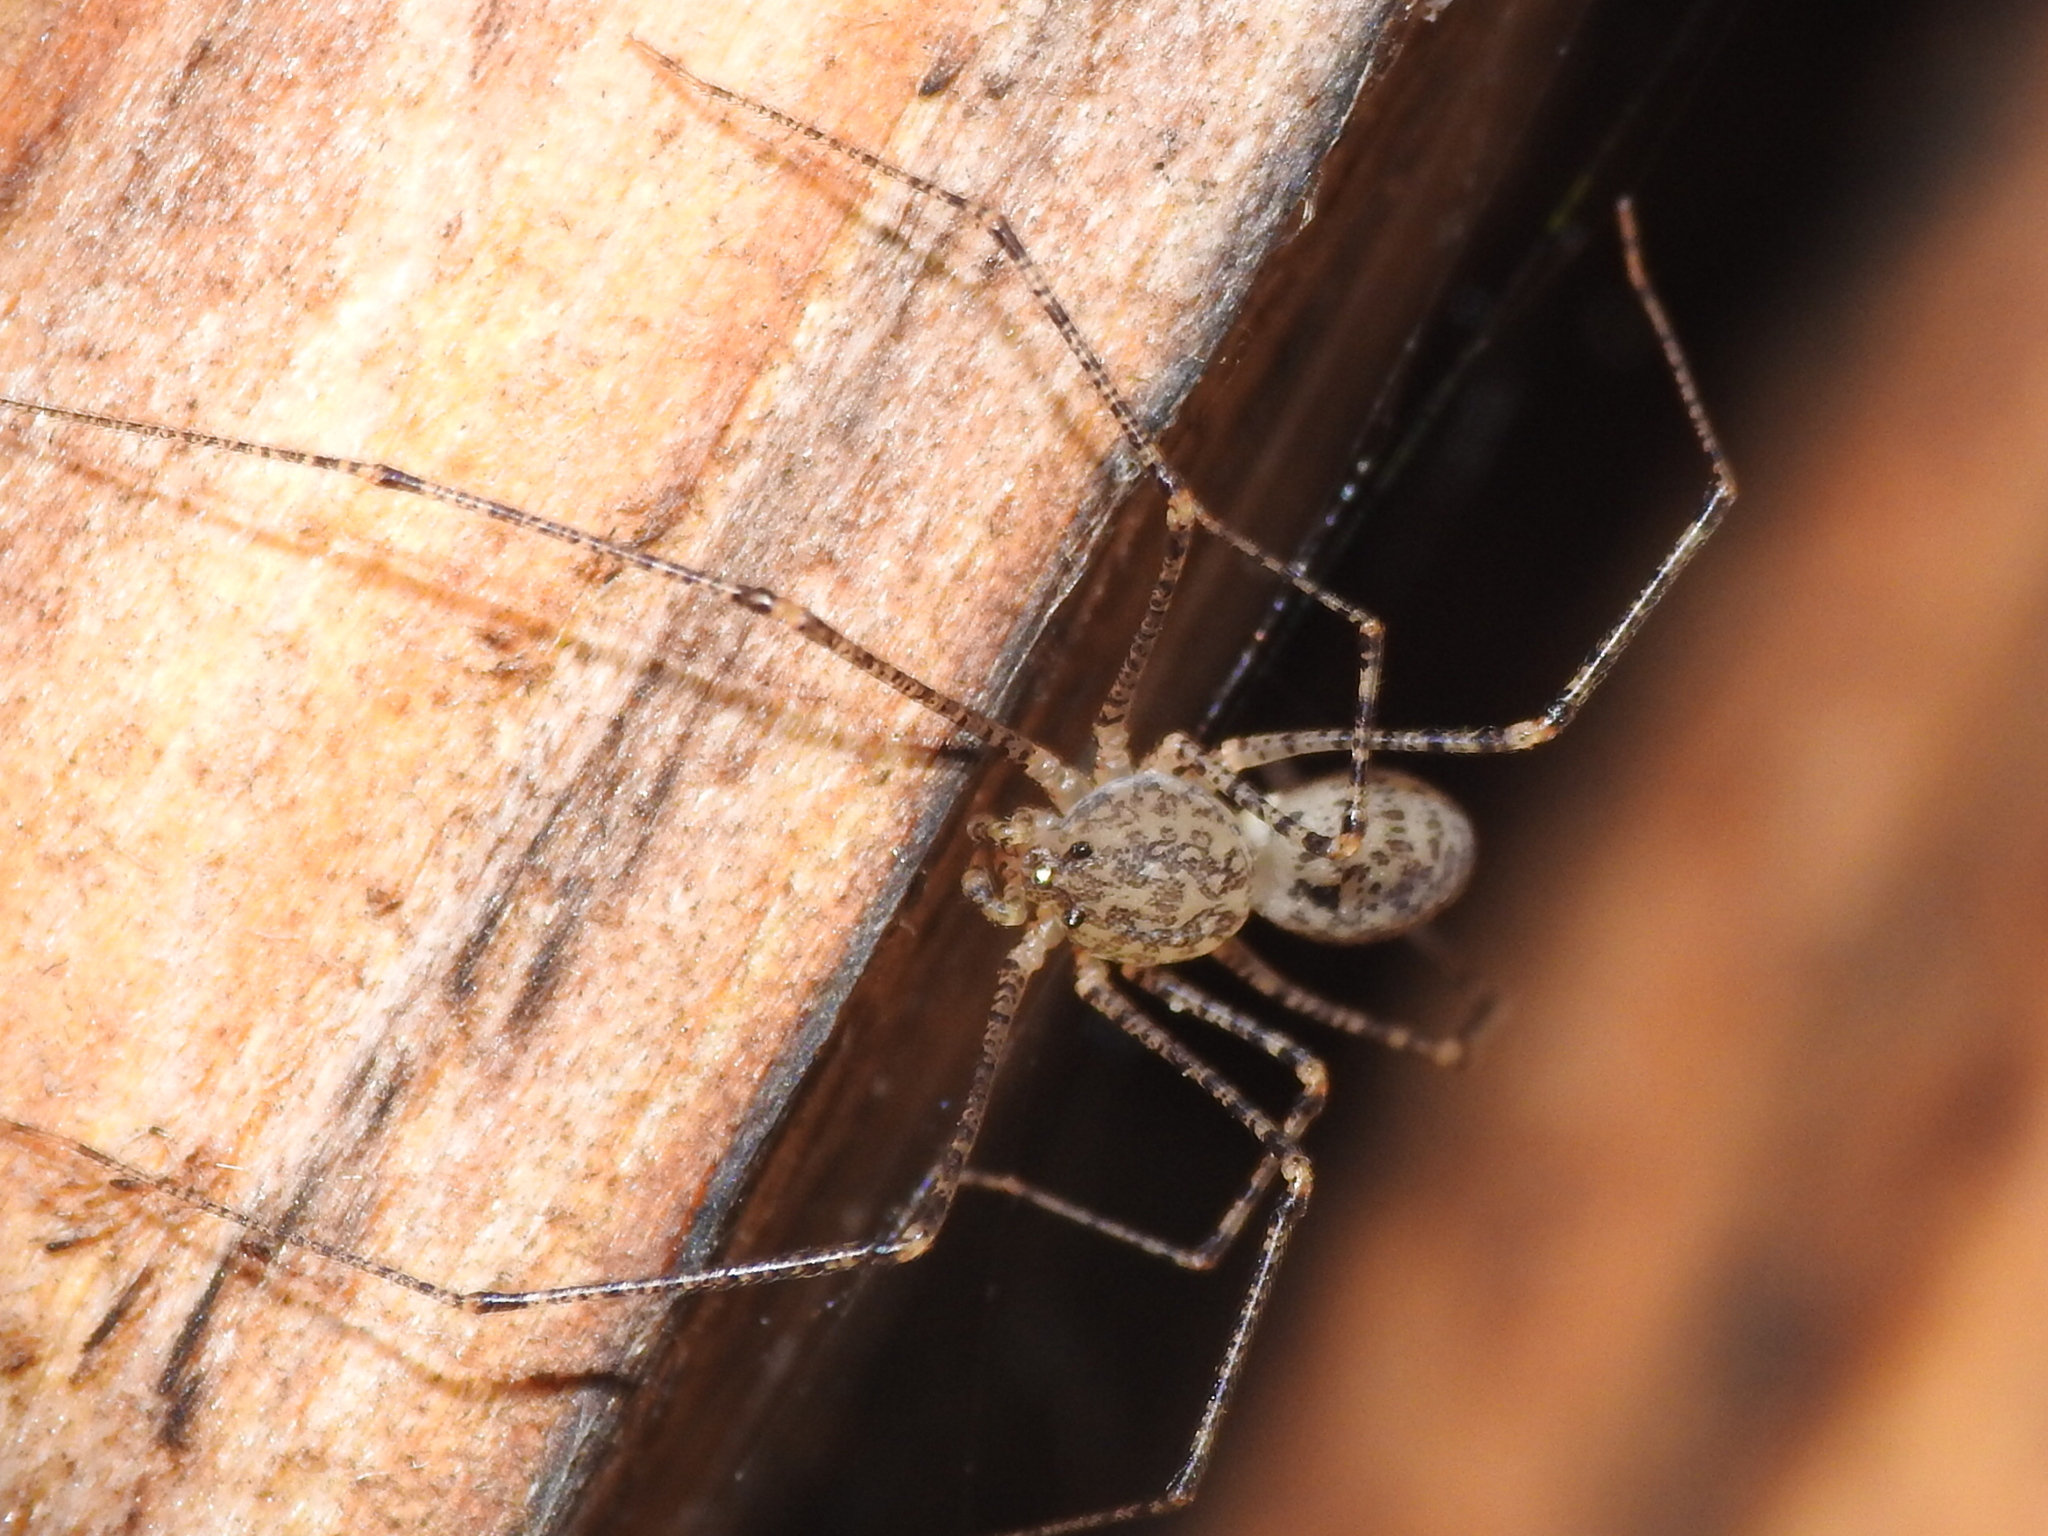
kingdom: Animalia
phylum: Arthropoda
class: Arachnida
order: Araneae
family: Scytodidae
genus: Scytodes
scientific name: Scytodes atlacoya
